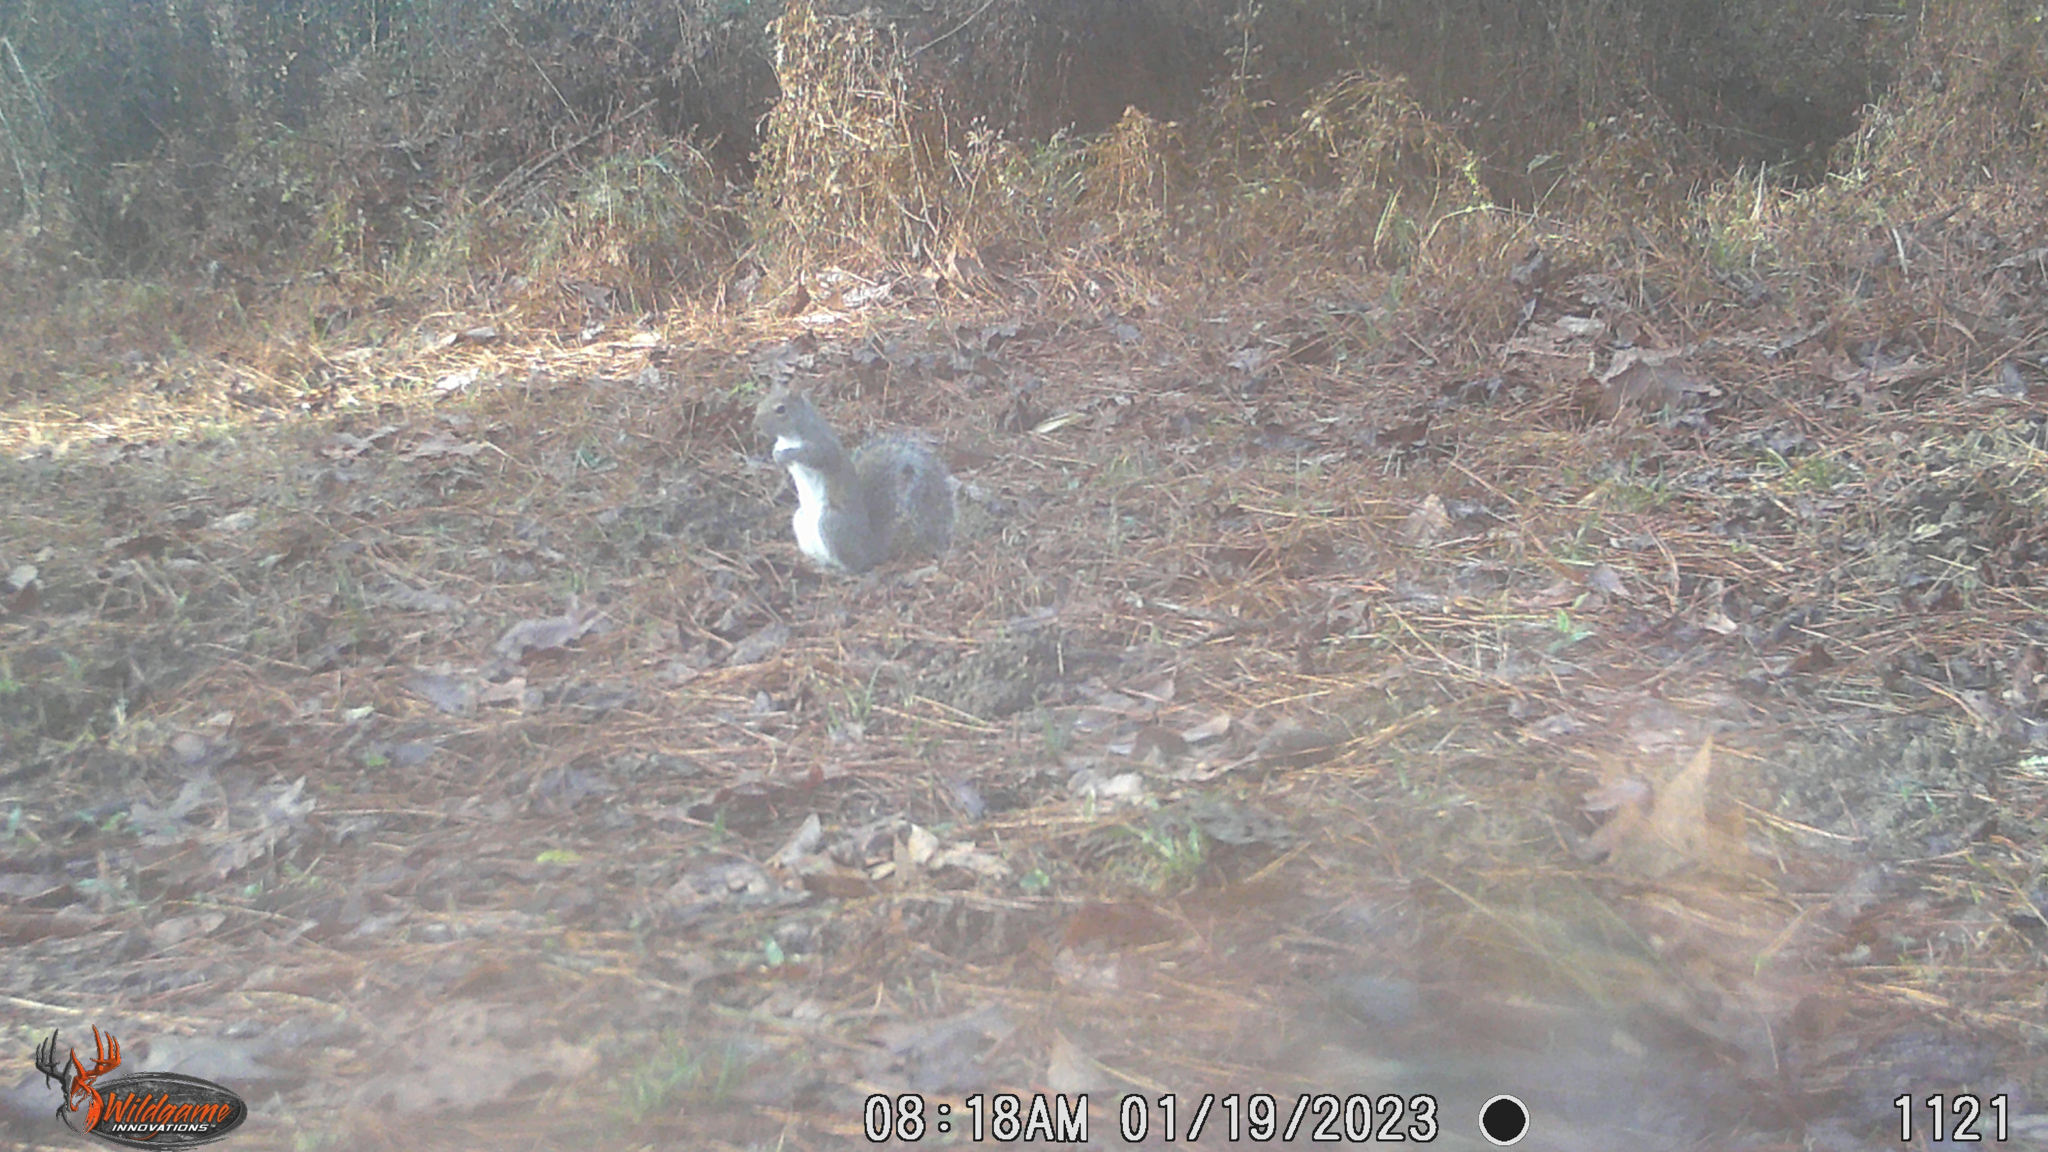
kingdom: Animalia
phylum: Chordata
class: Mammalia
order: Rodentia
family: Sciuridae
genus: Sciurus
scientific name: Sciurus carolinensis
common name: Eastern gray squirrel
